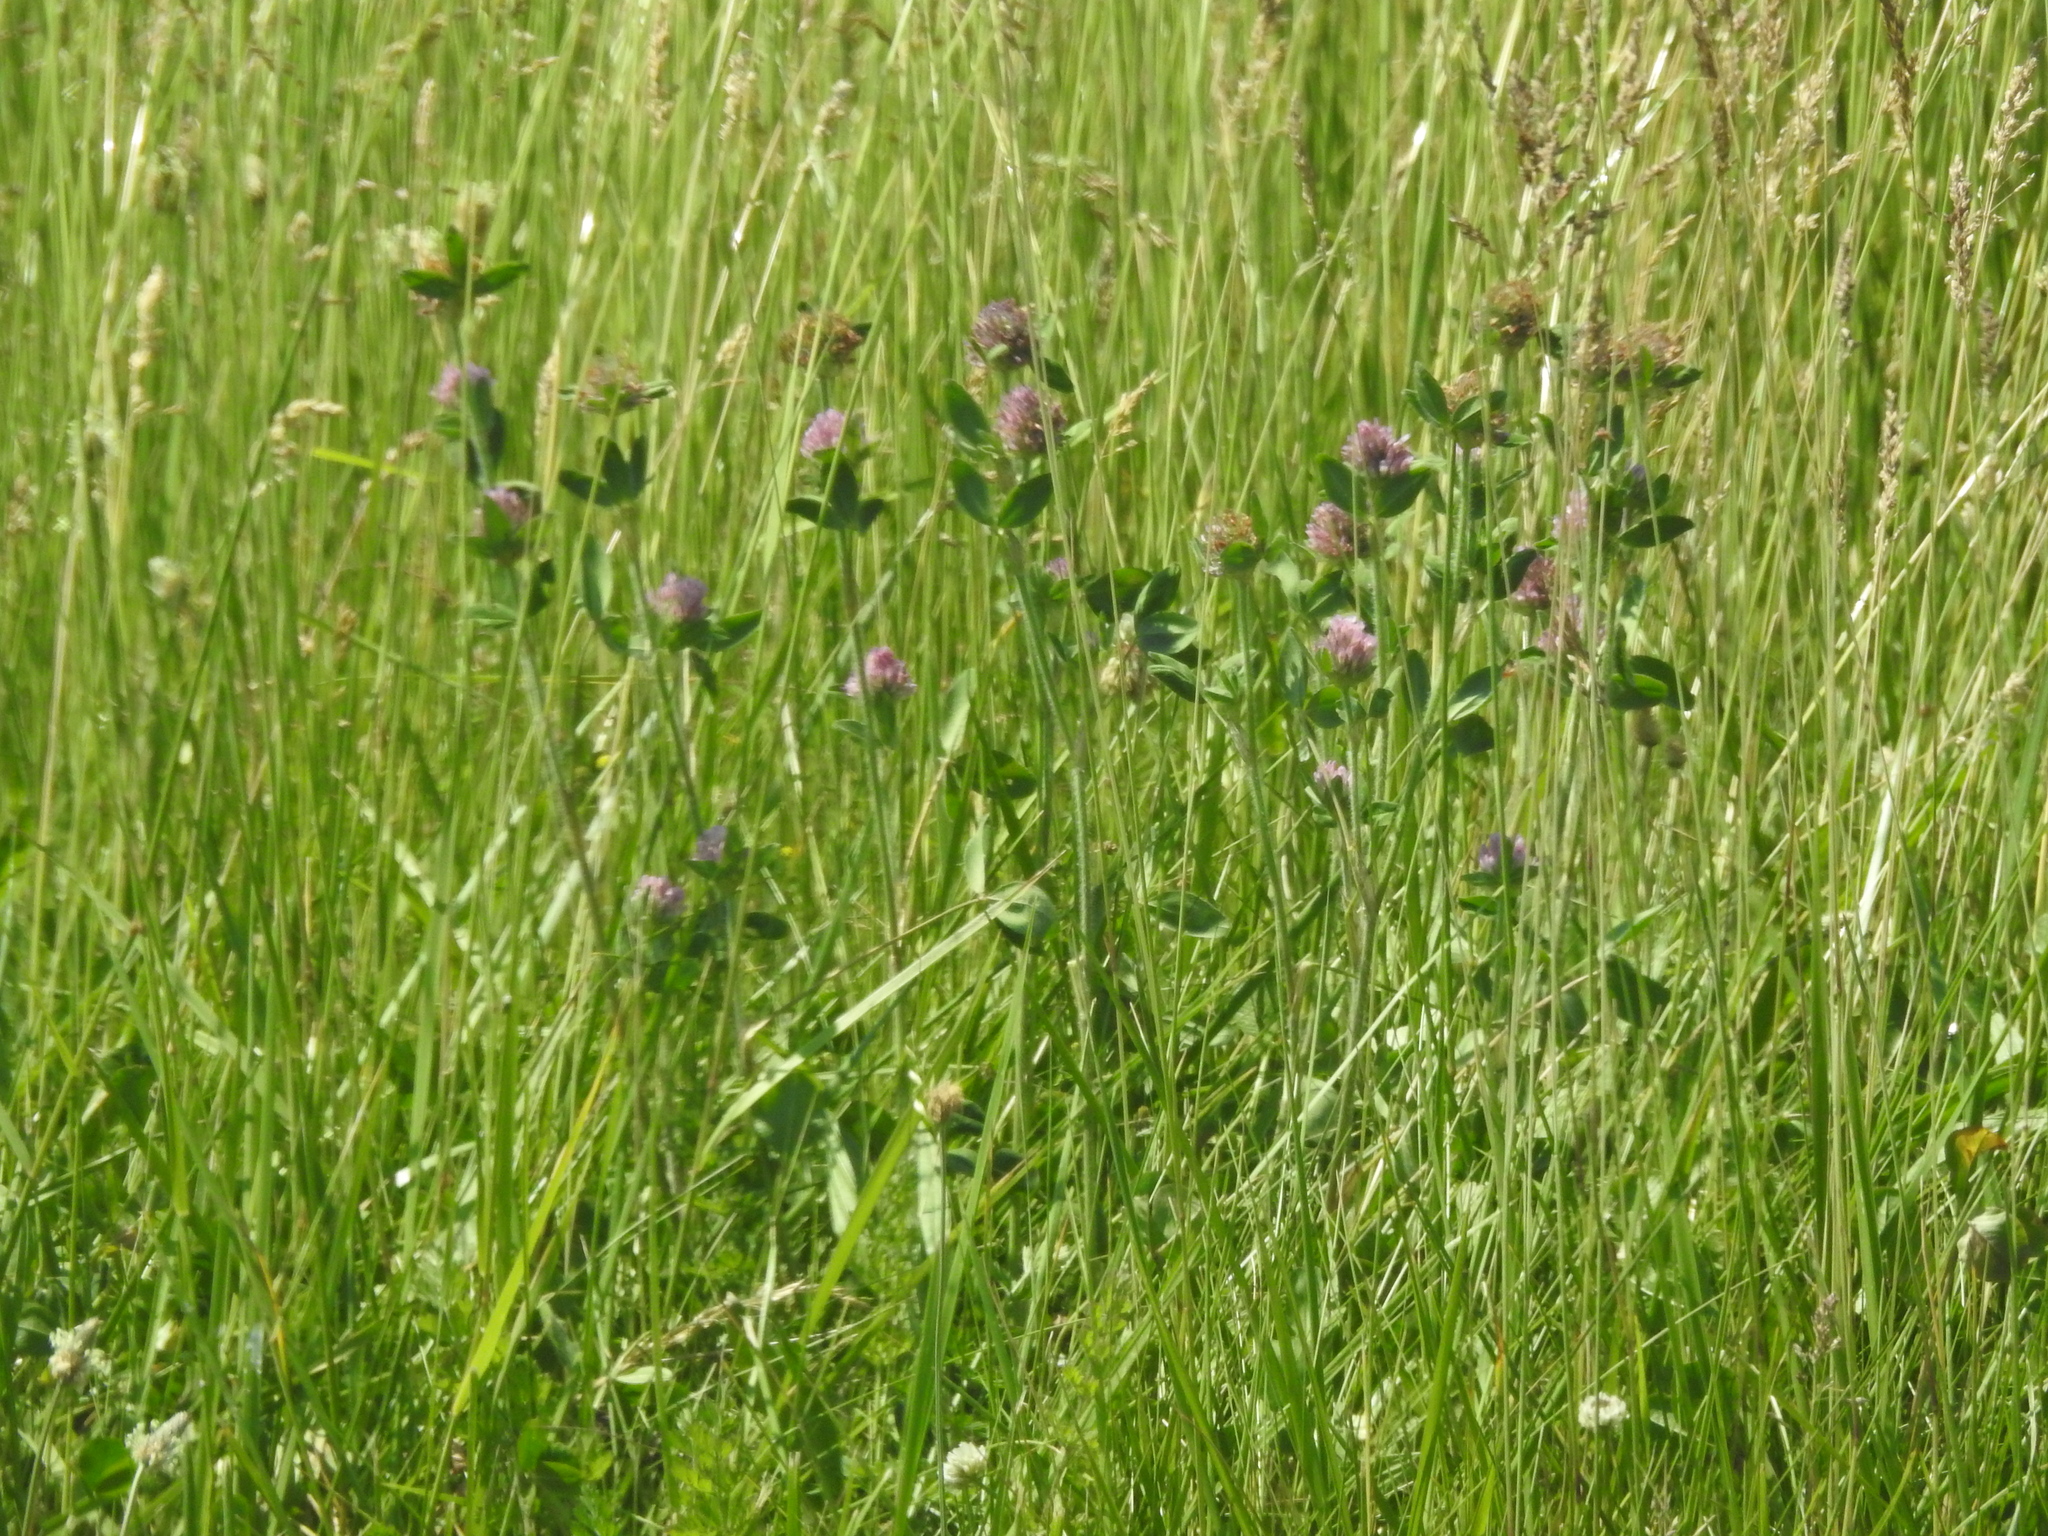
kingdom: Plantae
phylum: Tracheophyta
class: Magnoliopsida
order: Fabales
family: Fabaceae
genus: Trifolium
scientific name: Trifolium pratense
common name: Red clover
